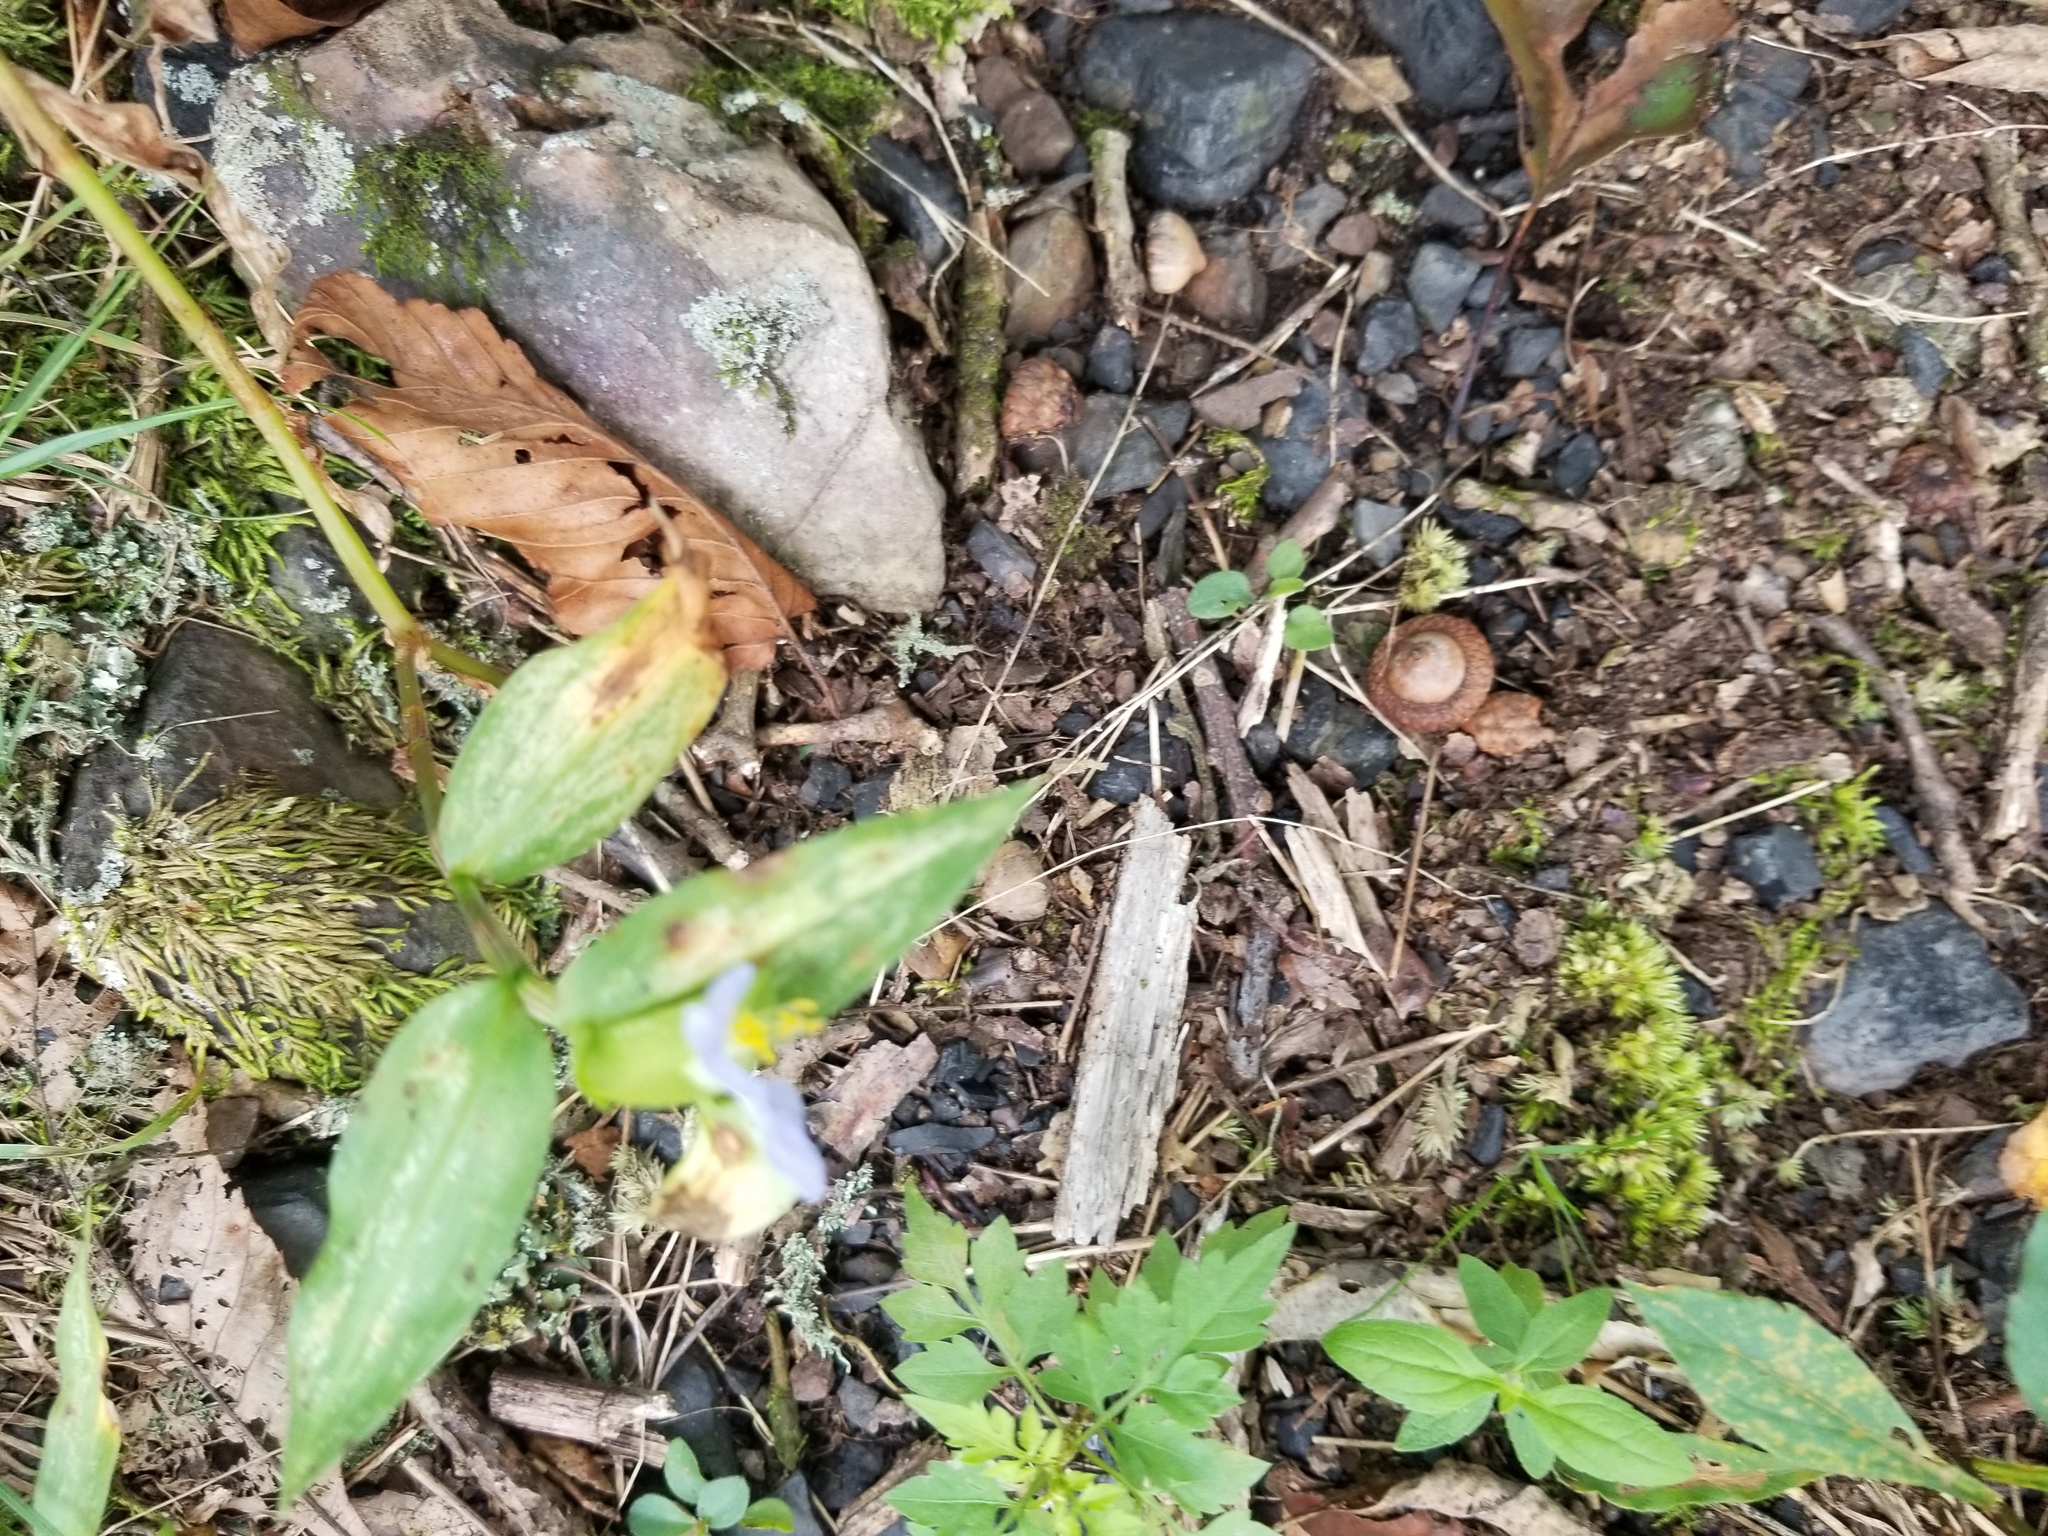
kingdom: Plantae
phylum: Tracheophyta
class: Liliopsida
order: Commelinales
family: Commelinaceae
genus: Commelina
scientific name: Commelina communis
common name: Asiatic dayflower
